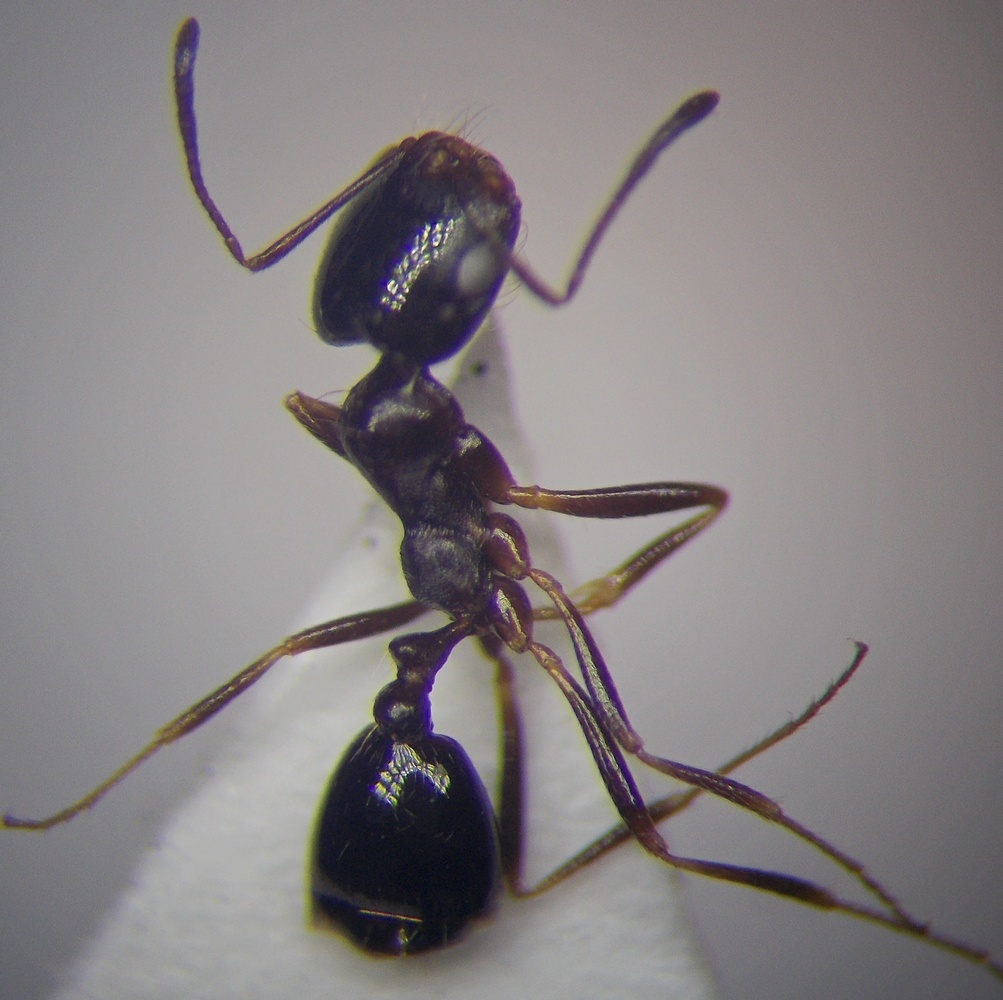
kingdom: Animalia
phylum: Arthropoda
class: Insecta
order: Hymenoptera
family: Formicidae
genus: Monomorium
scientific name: Monomorium barbatulum
